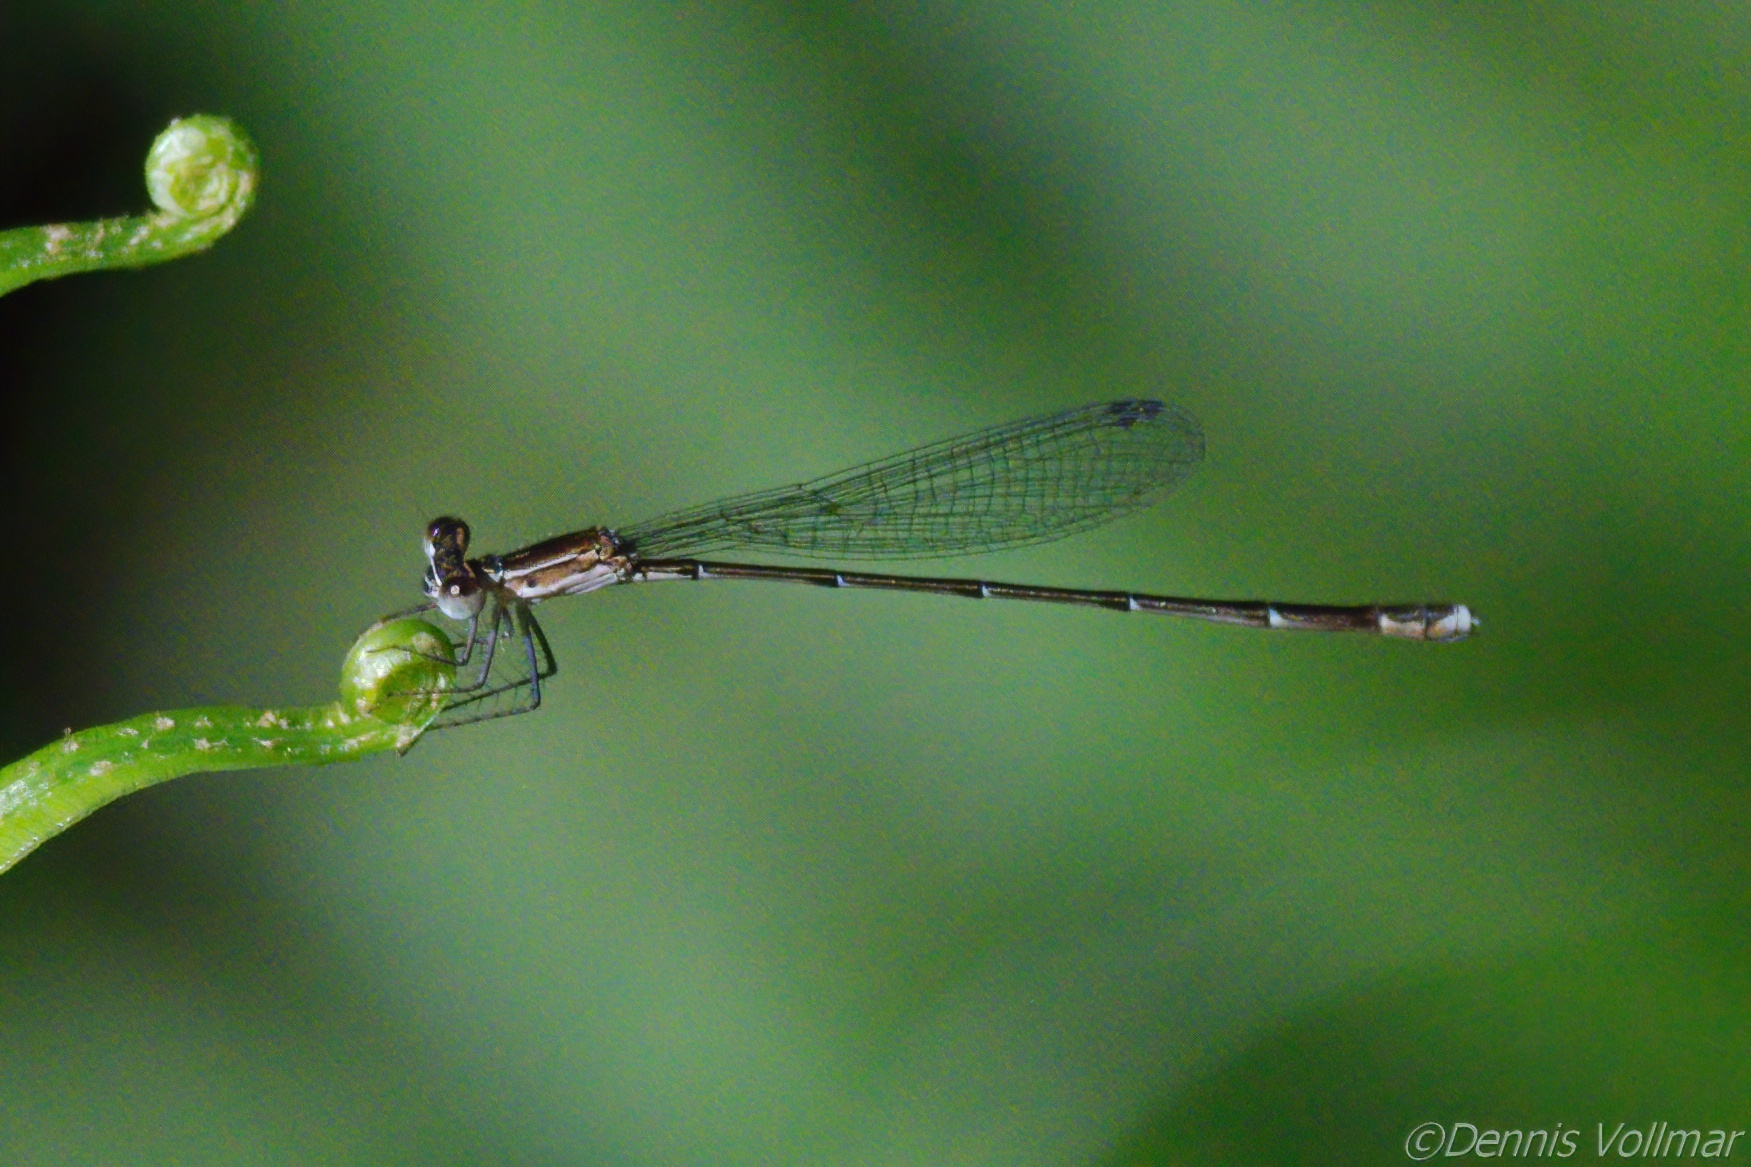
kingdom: Animalia
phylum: Arthropoda
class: Insecta
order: Odonata
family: Coenagrionidae
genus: Nehalennia
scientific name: Nehalennia pallidula
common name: Everglades sprite
